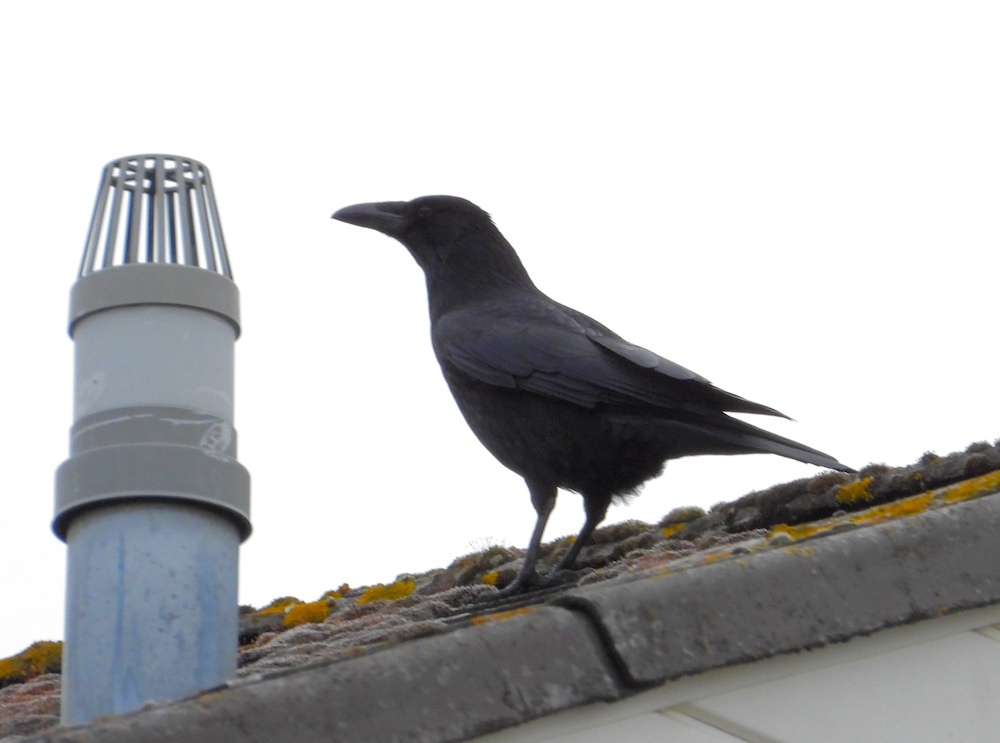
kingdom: Animalia
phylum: Chordata
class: Aves
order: Passeriformes
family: Corvidae
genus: Corvus
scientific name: Corvus corone
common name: Carrion crow
